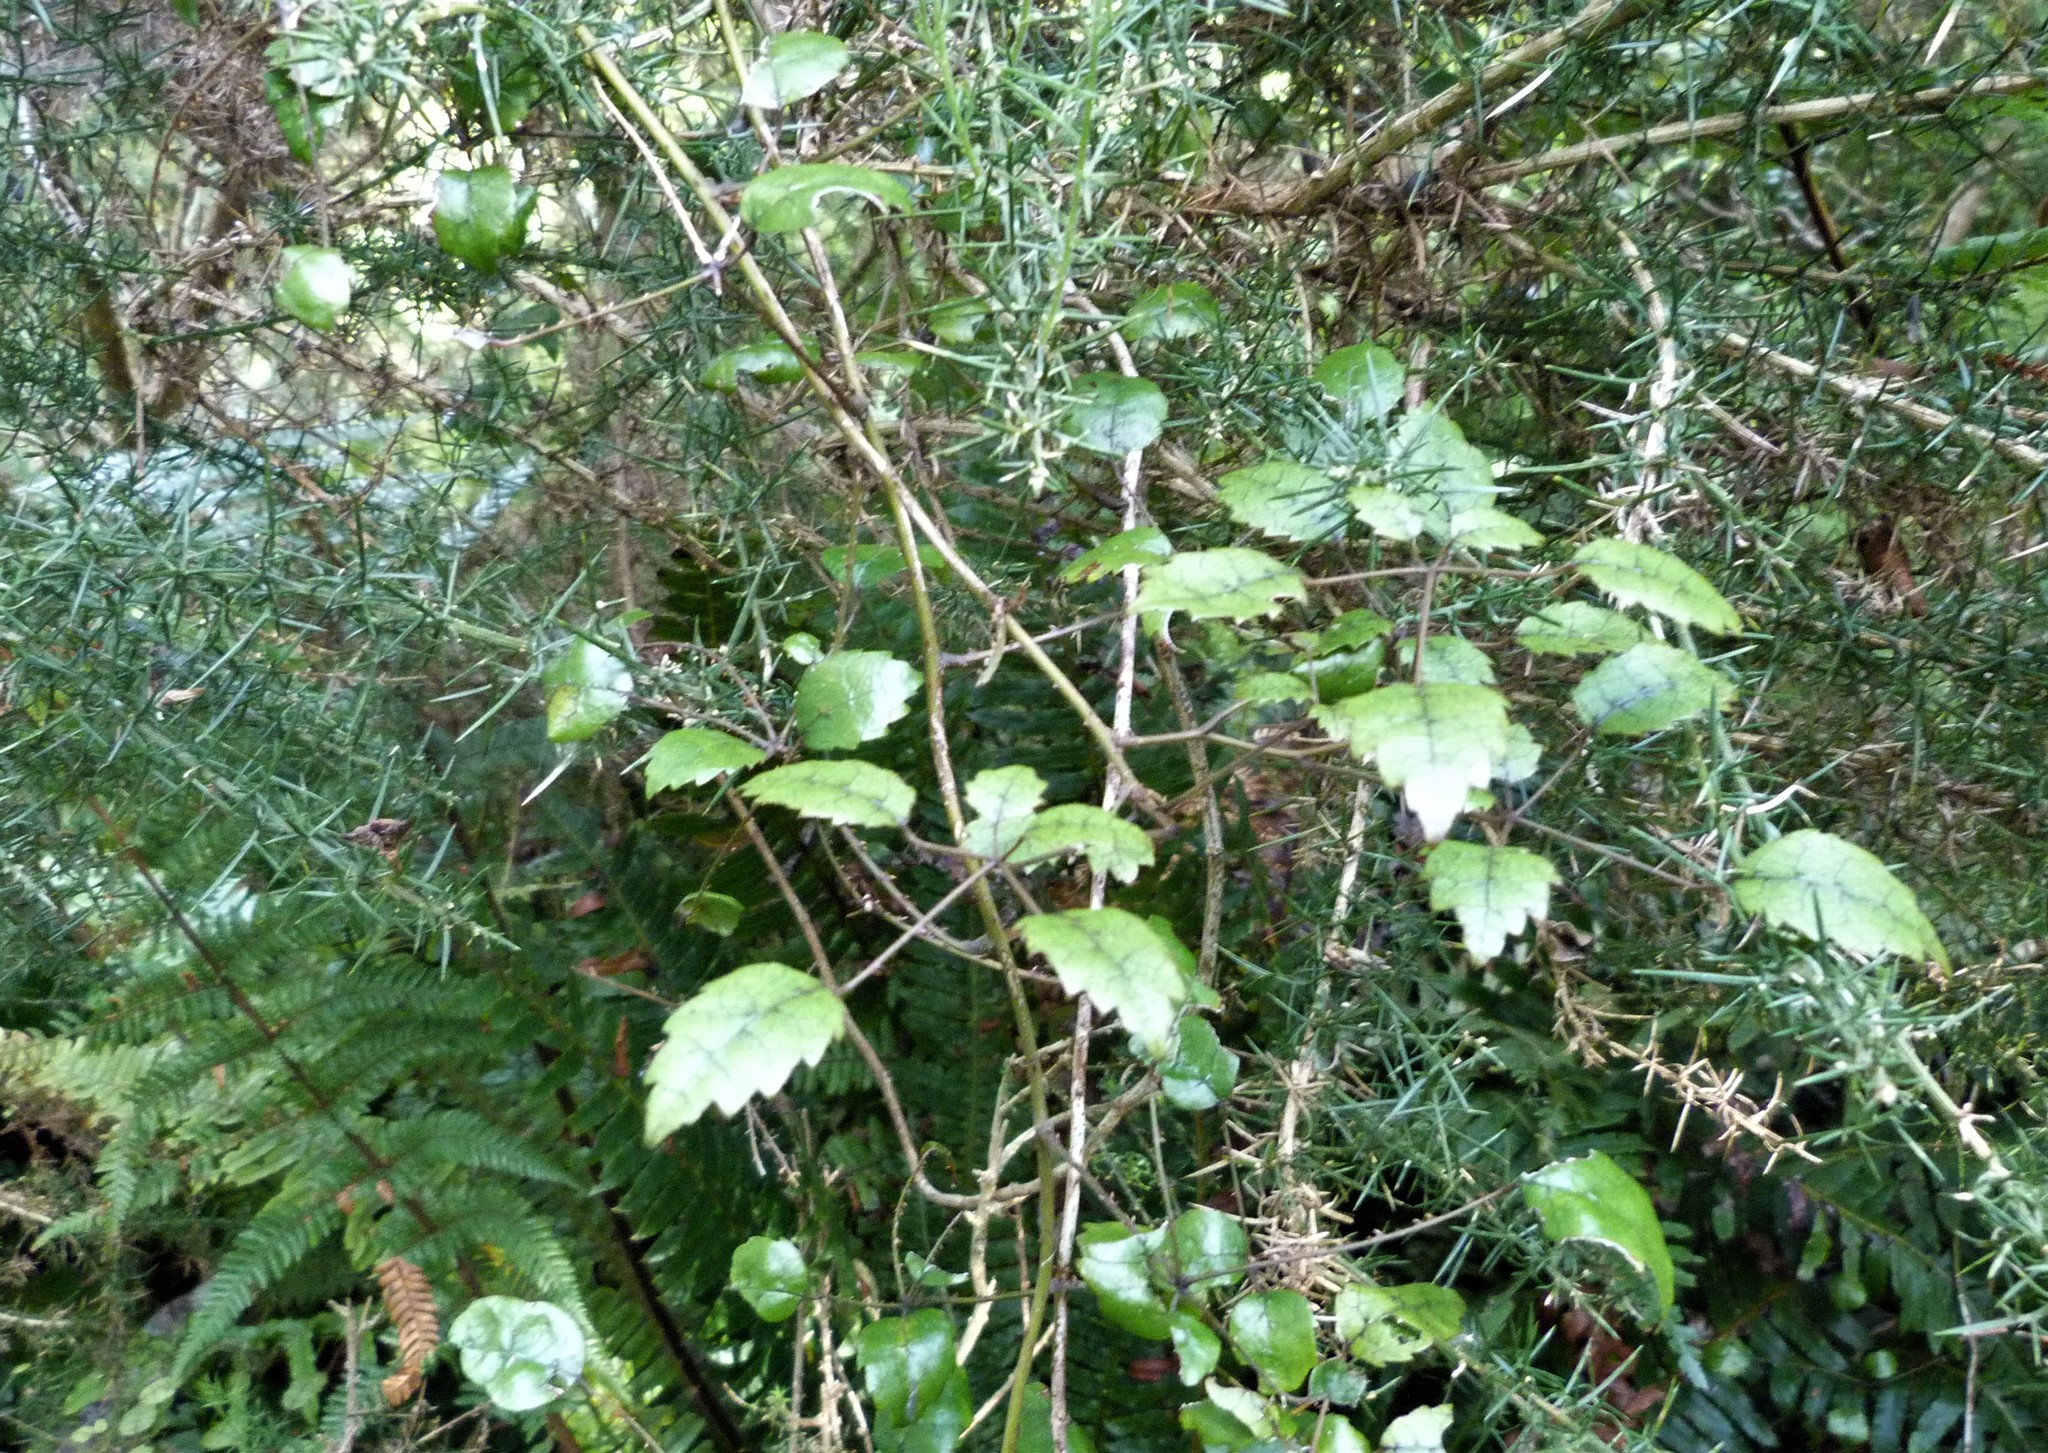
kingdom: Plantae
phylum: Tracheophyta
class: Magnoliopsida
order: Rosales
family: Rosaceae
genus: Rubus
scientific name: Rubus australis
